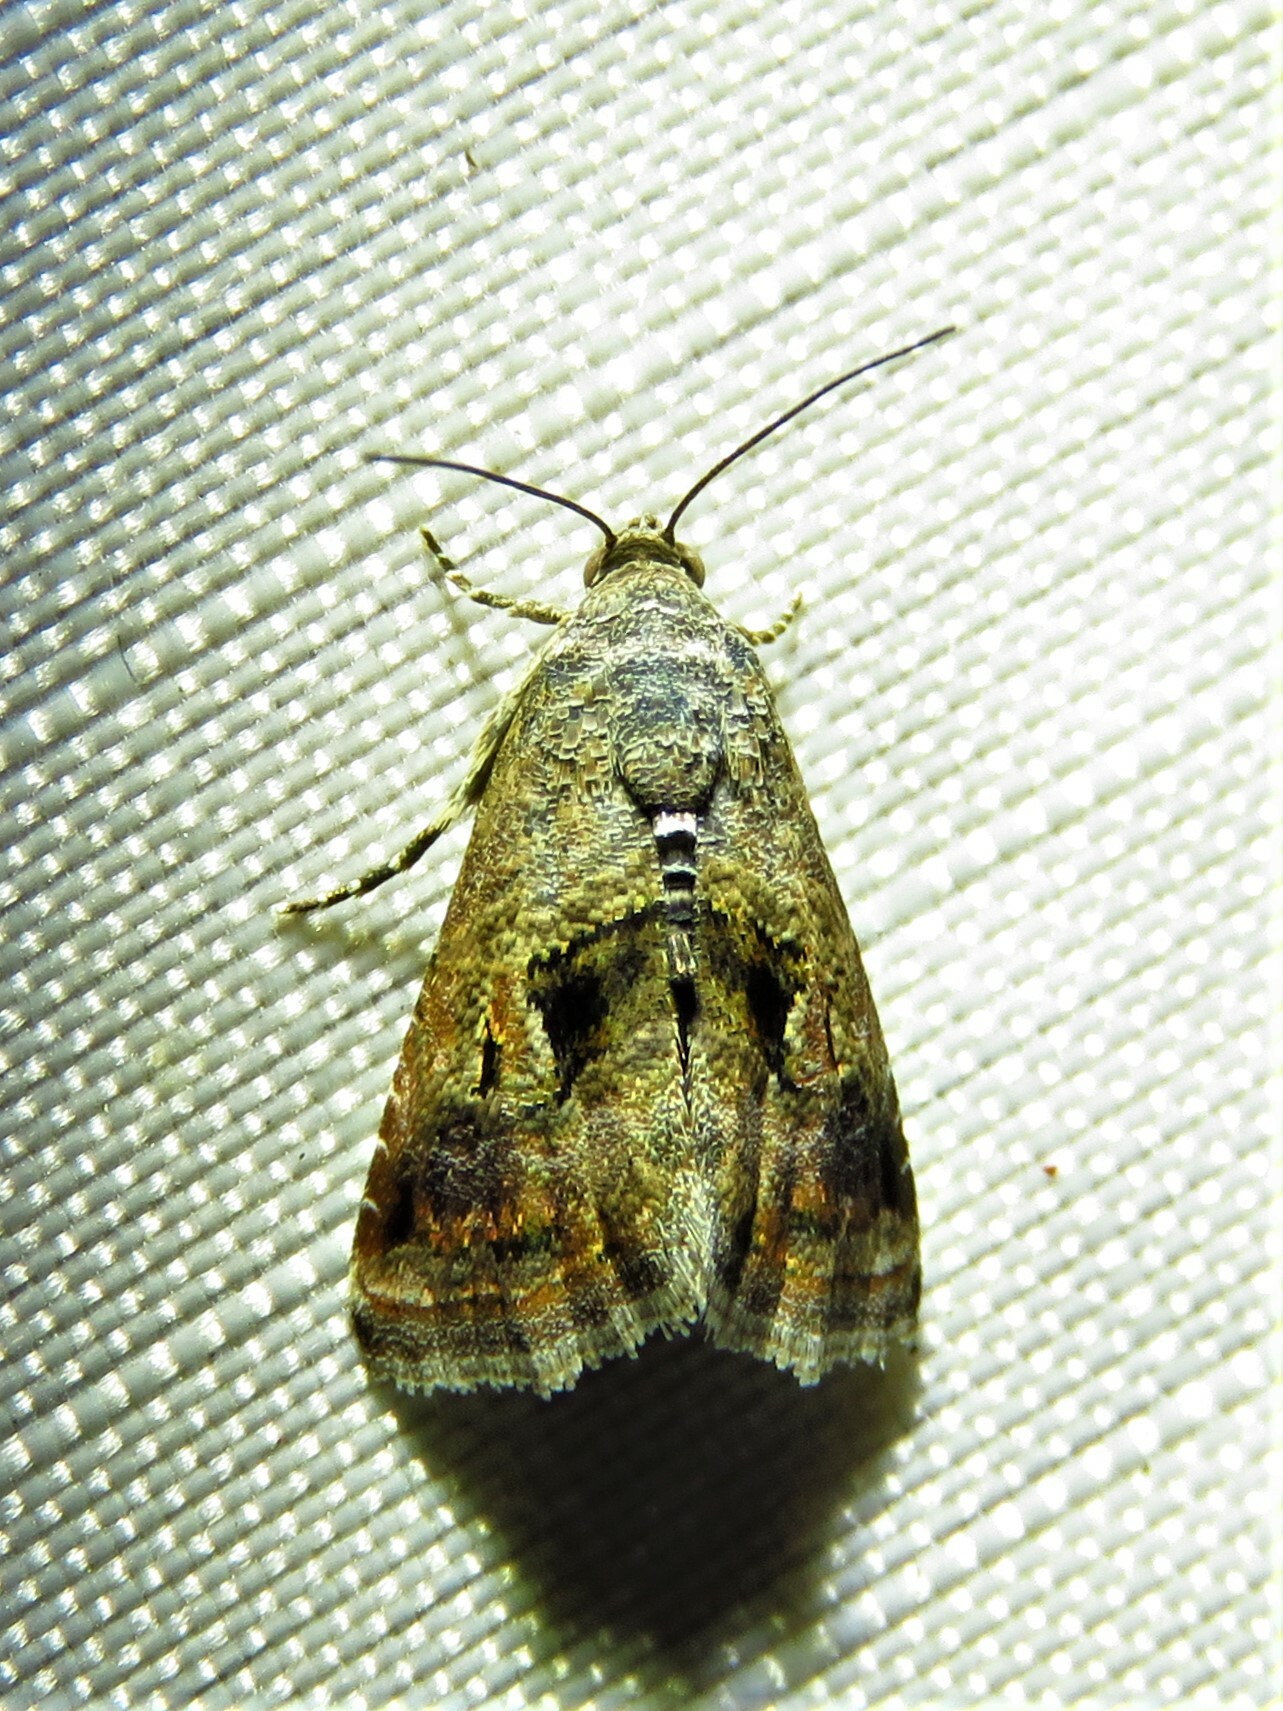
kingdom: Animalia
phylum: Arthropoda
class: Insecta
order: Lepidoptera
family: Noctuidae
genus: Tripudia
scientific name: Tripudia quadrifera
